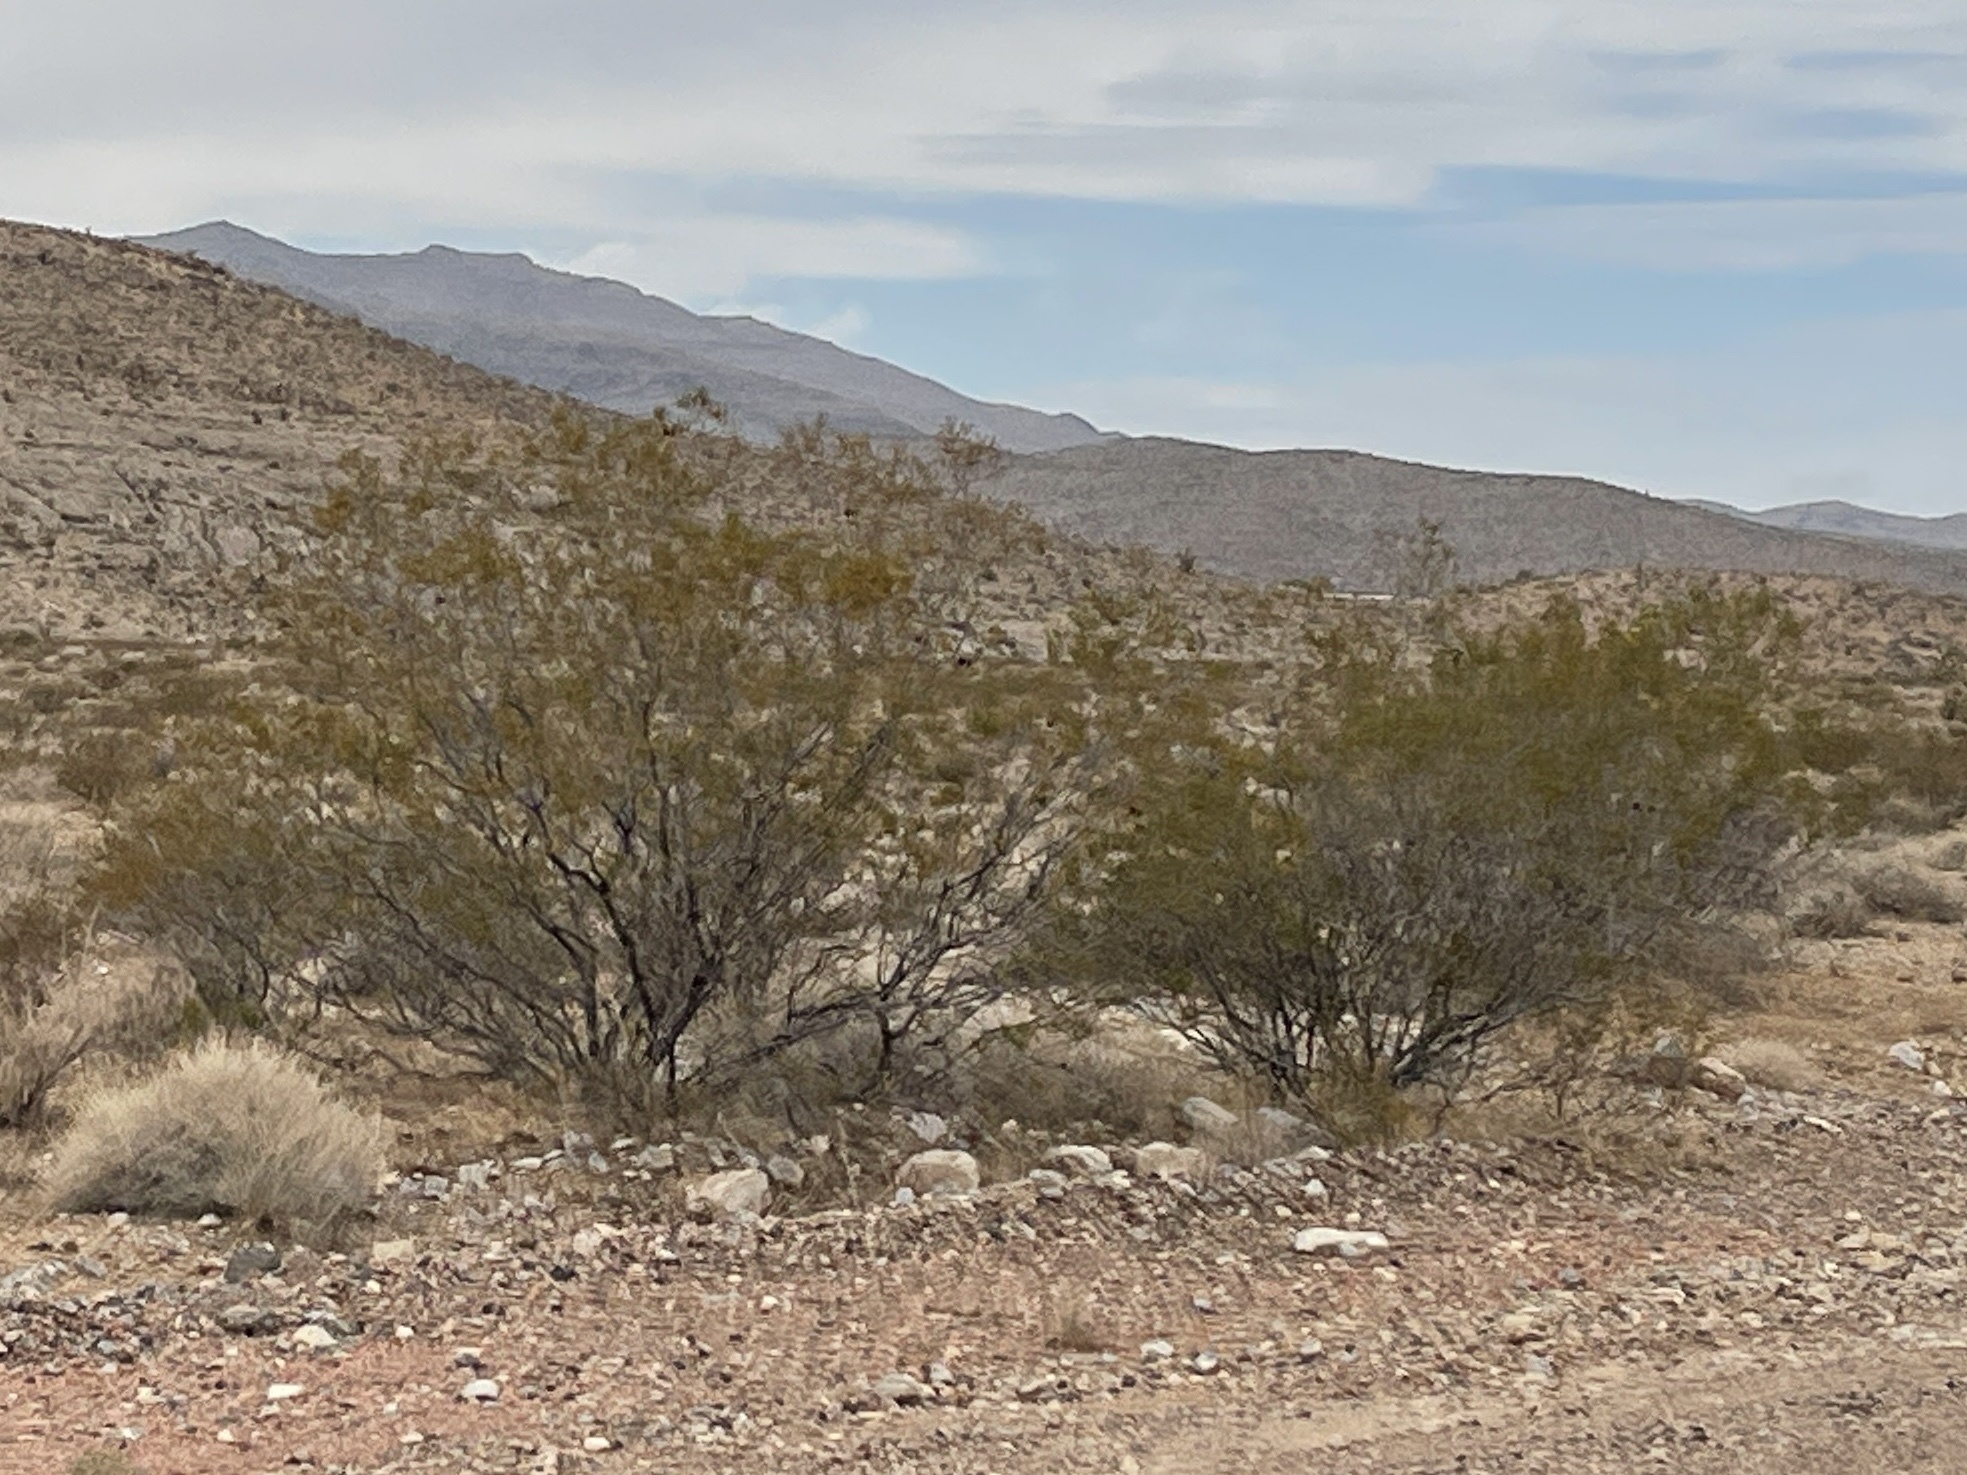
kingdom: Plantae
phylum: Tracheophyta
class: Magnoliopsida
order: Zygophyllales
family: Zygophyllaceae
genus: Larrea
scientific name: Larrea tridentata
